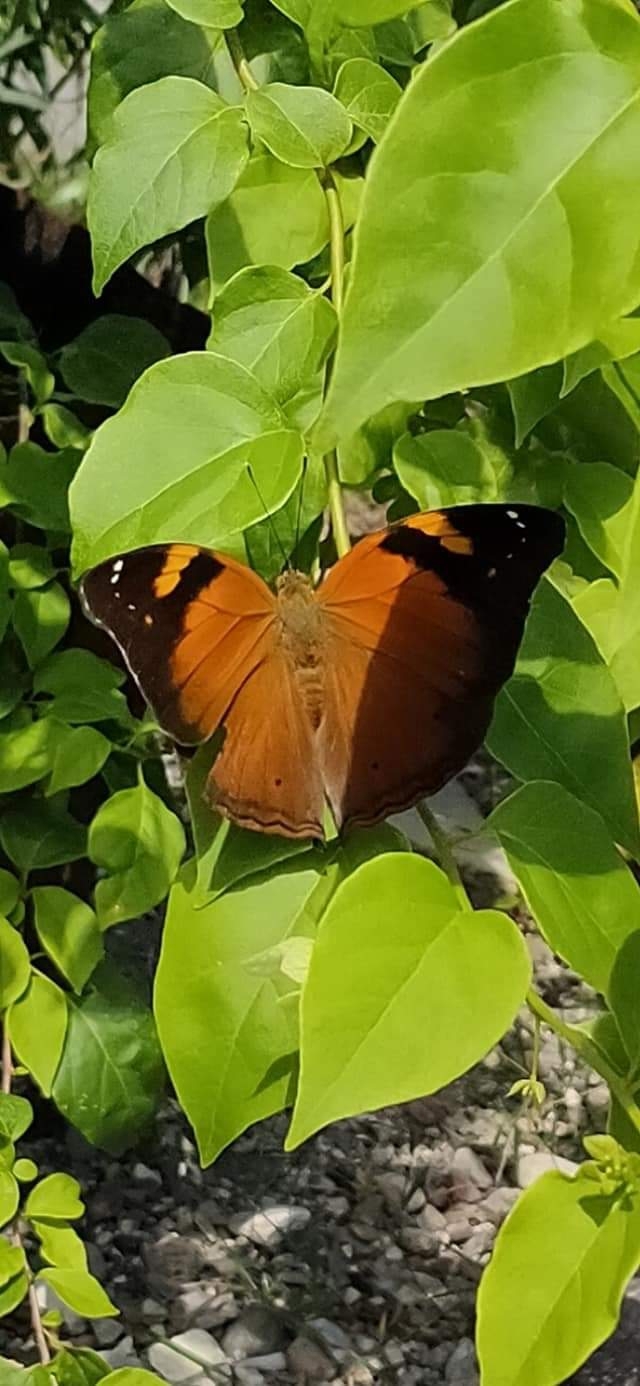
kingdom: Animalia
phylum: Arthropoda
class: Insecta
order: Lepidoptera
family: Nymphalidae
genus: Doleschallia
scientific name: Doleschallia bisaltide
